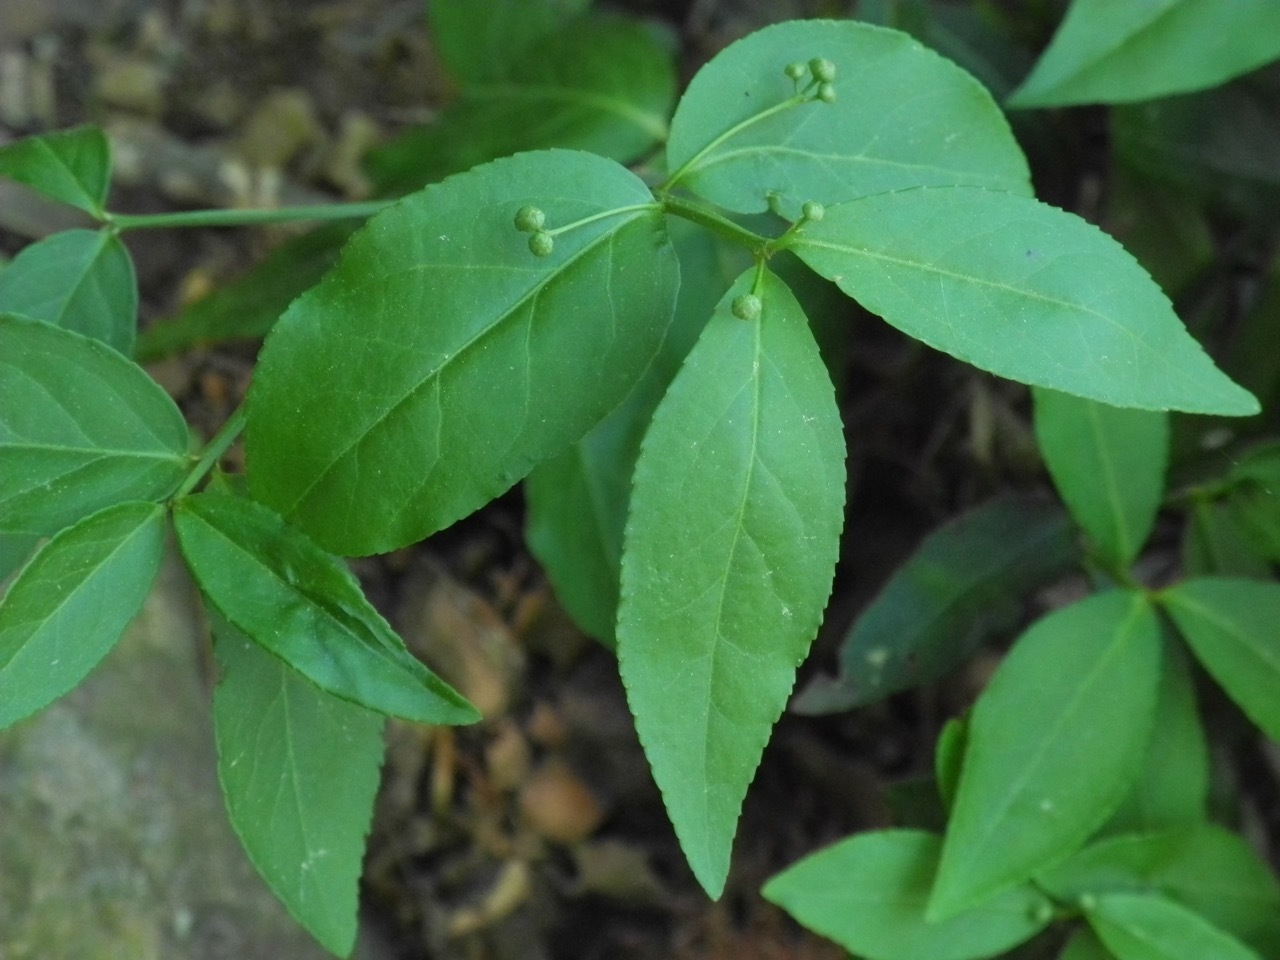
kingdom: Plantae
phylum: Tracheophyta
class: Magnoliopsida
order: Celastrales
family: Celastraceae
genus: Euonymus
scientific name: Euonymus americanus
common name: Bursting-heart
